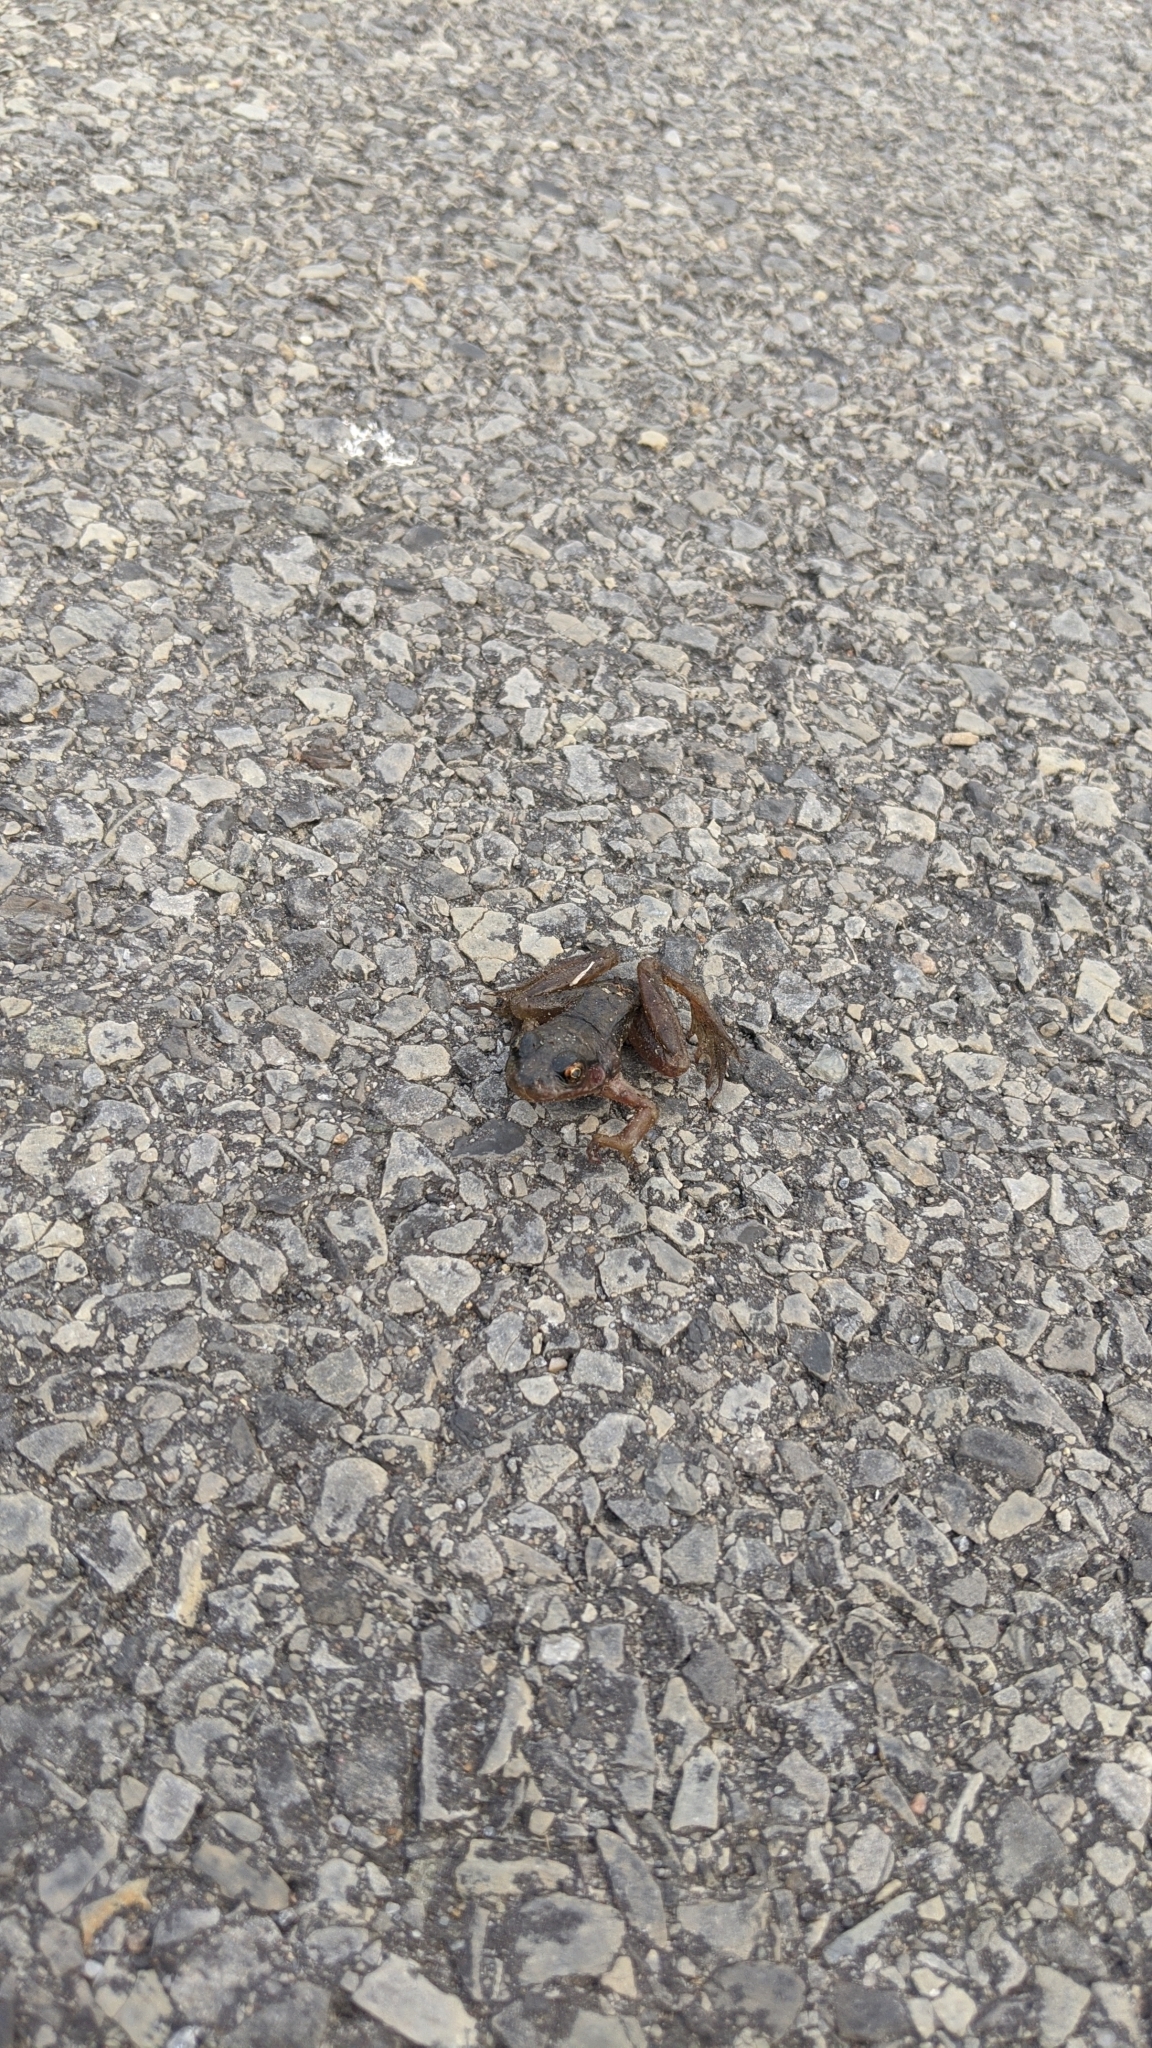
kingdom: Animalia
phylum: Chordata
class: Amphibia
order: Anura
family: Ranidae
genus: Lithobates
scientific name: Lithobates
